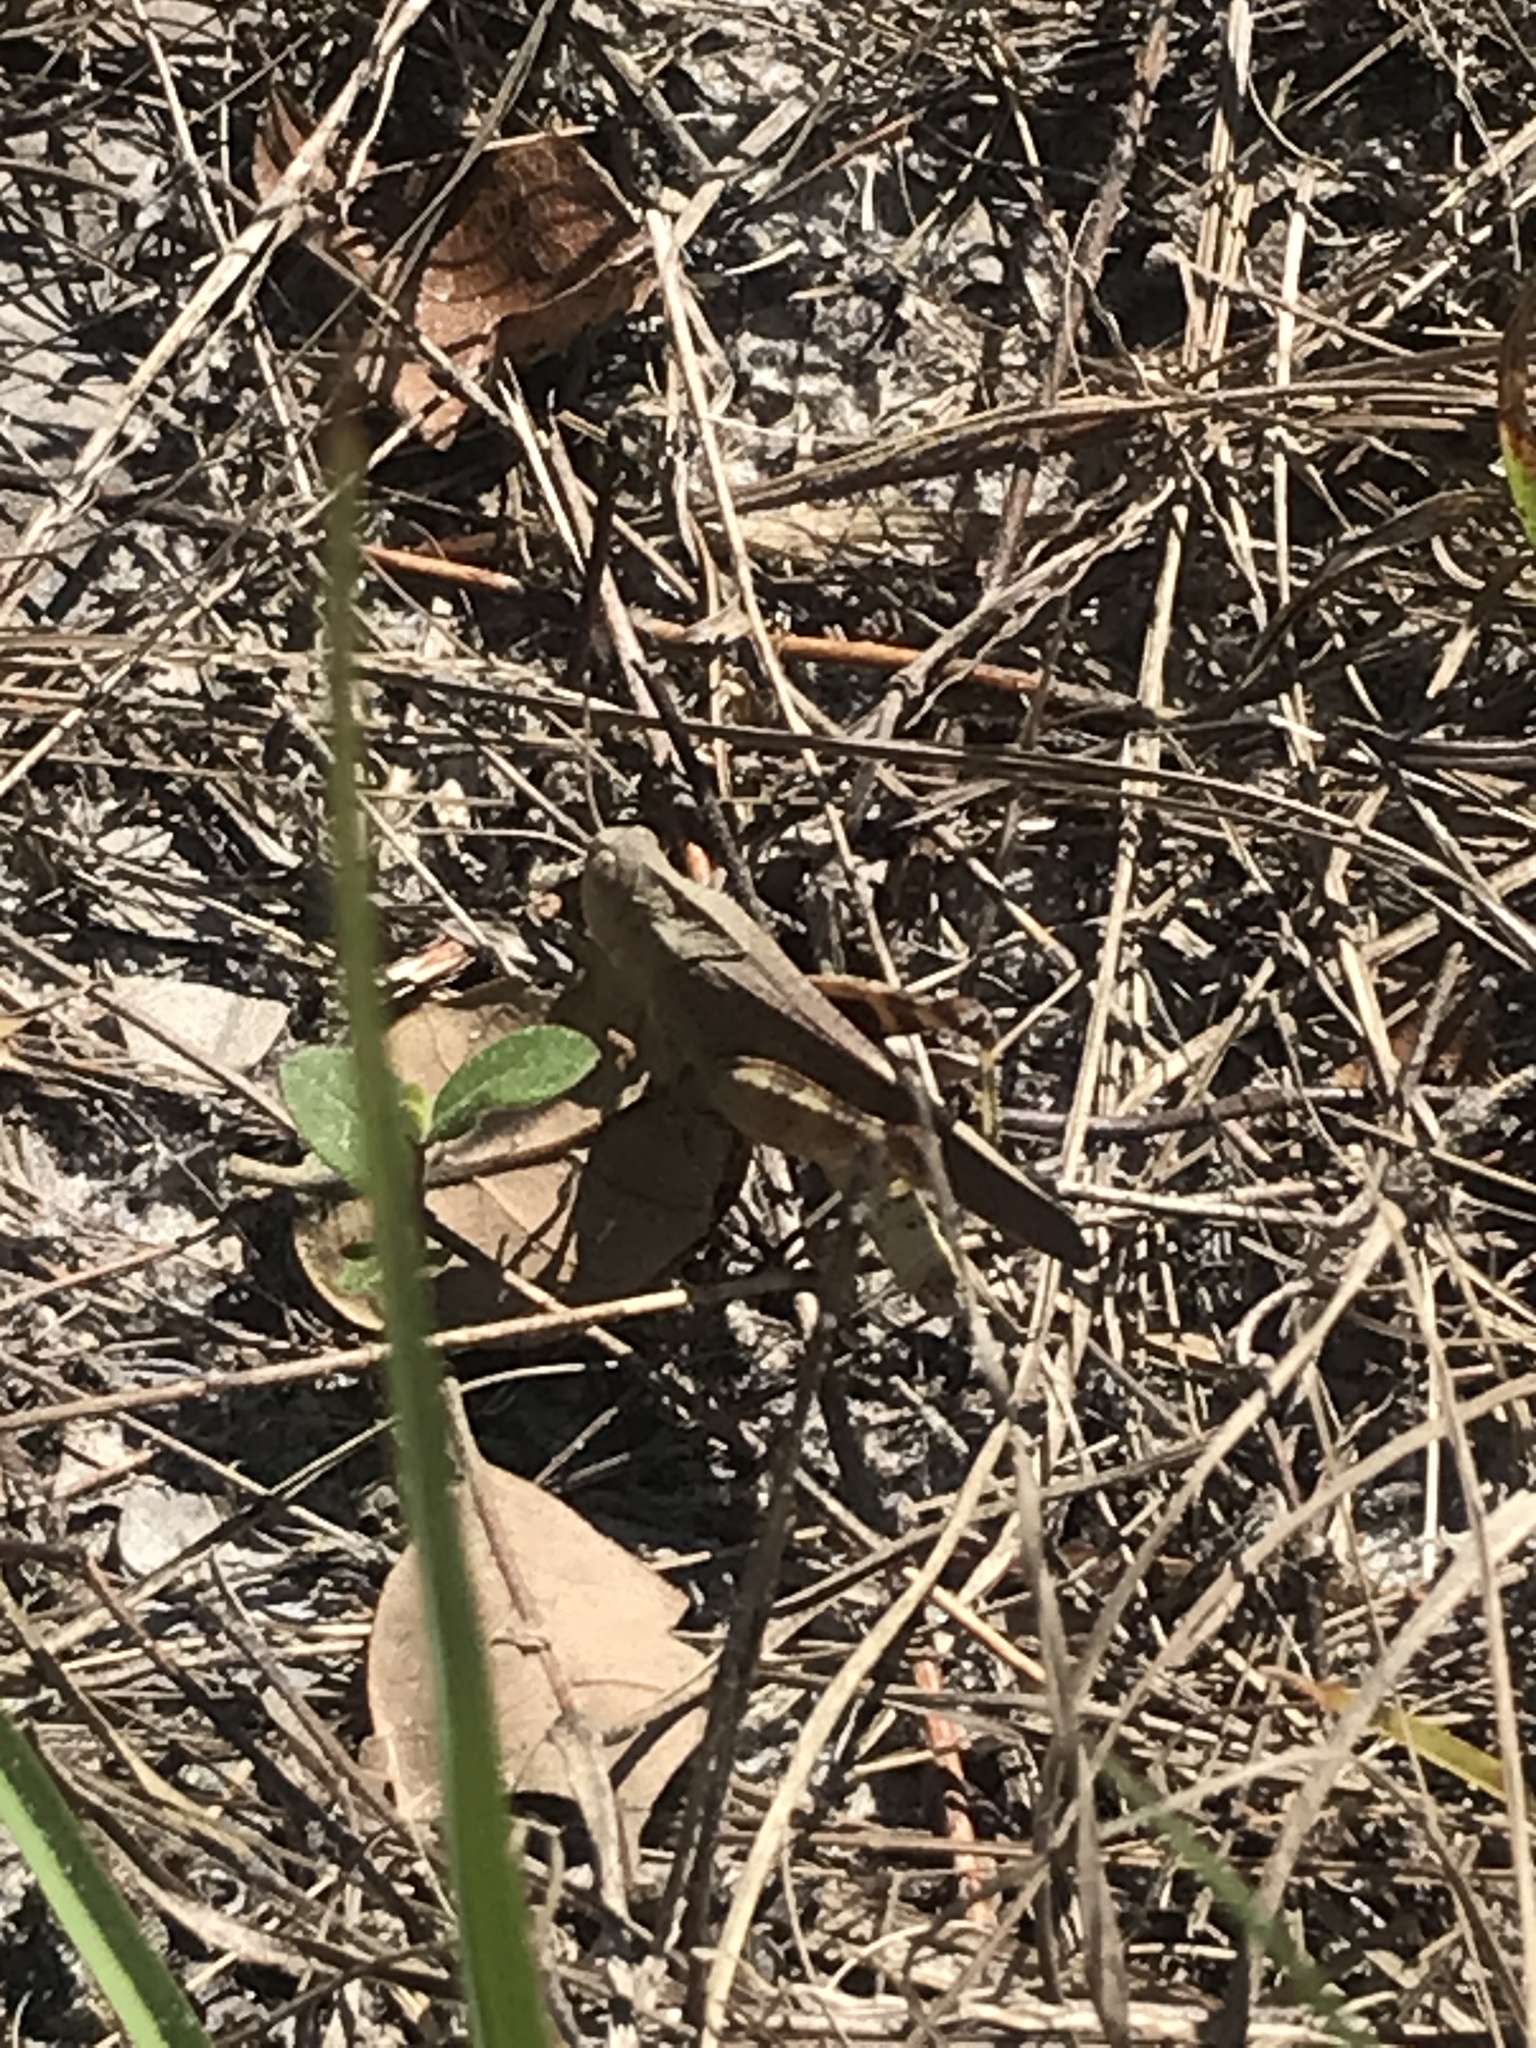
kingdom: Animalia
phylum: Arthropoda
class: Insecta
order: Orthoptera
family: Acrididae
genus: Arphia
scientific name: Arphia granulata
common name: Southern yellow-winged grasshopper
